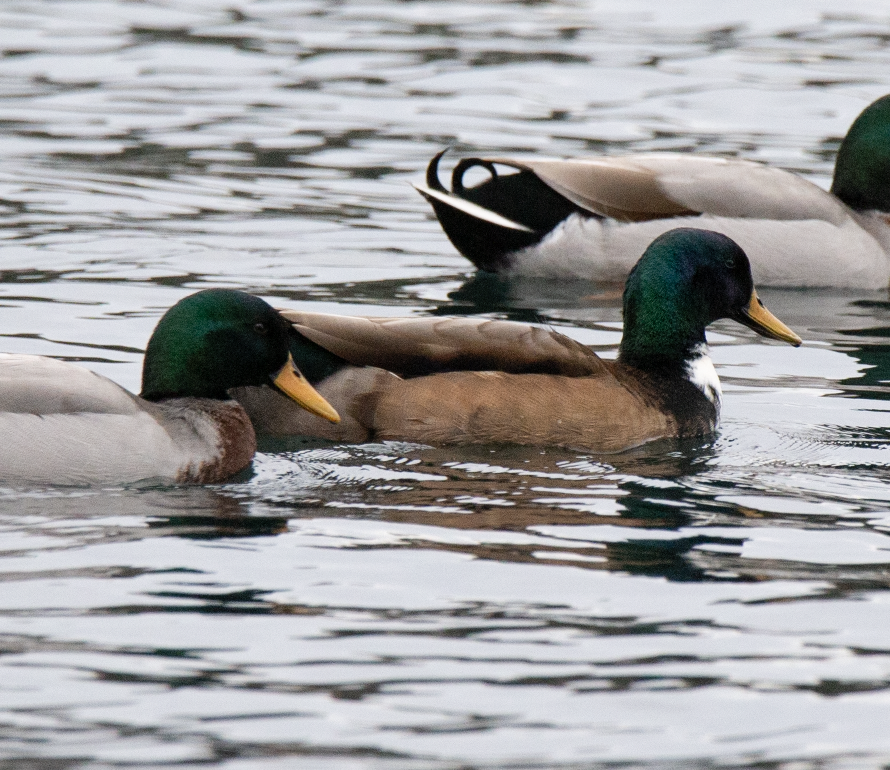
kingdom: Animalia
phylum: Chordata
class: Aves
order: Anseriformes
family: Anatidae
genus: Anas
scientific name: Anas platyrhynchos
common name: Mallard
